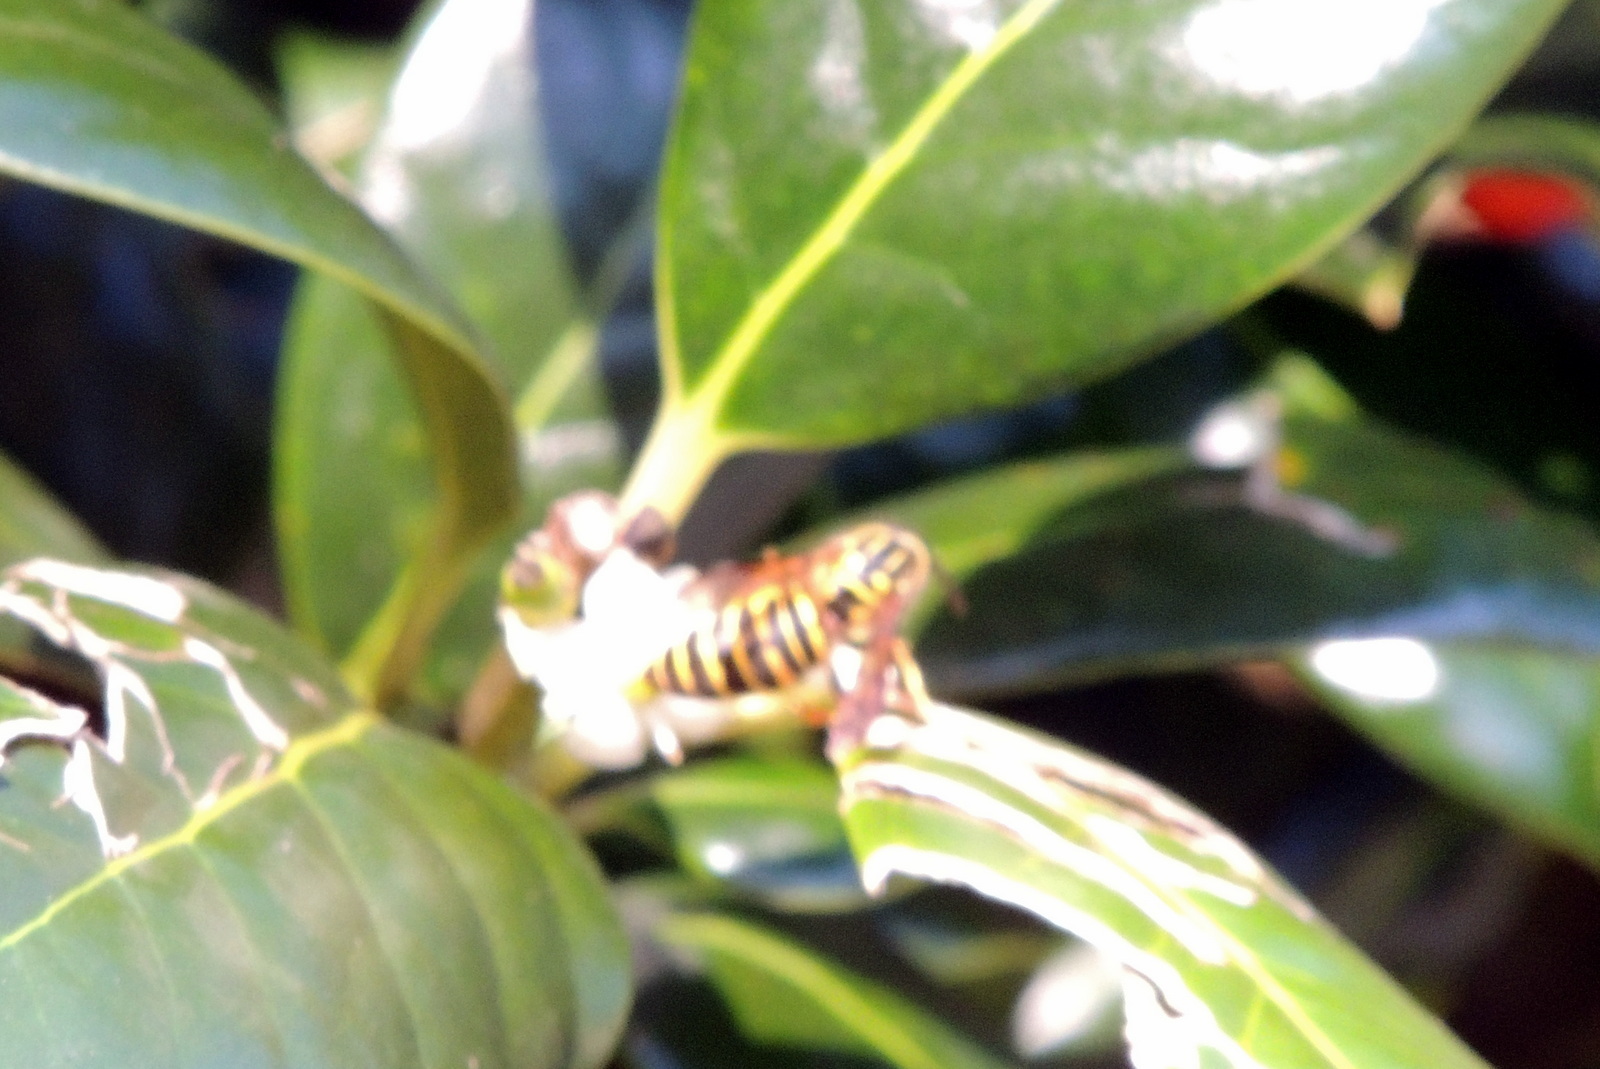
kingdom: Animalia
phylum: Arthropoda
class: Insecta
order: Hymenoptera
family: Vespidae
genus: Vespula
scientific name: Vespula squamosa
